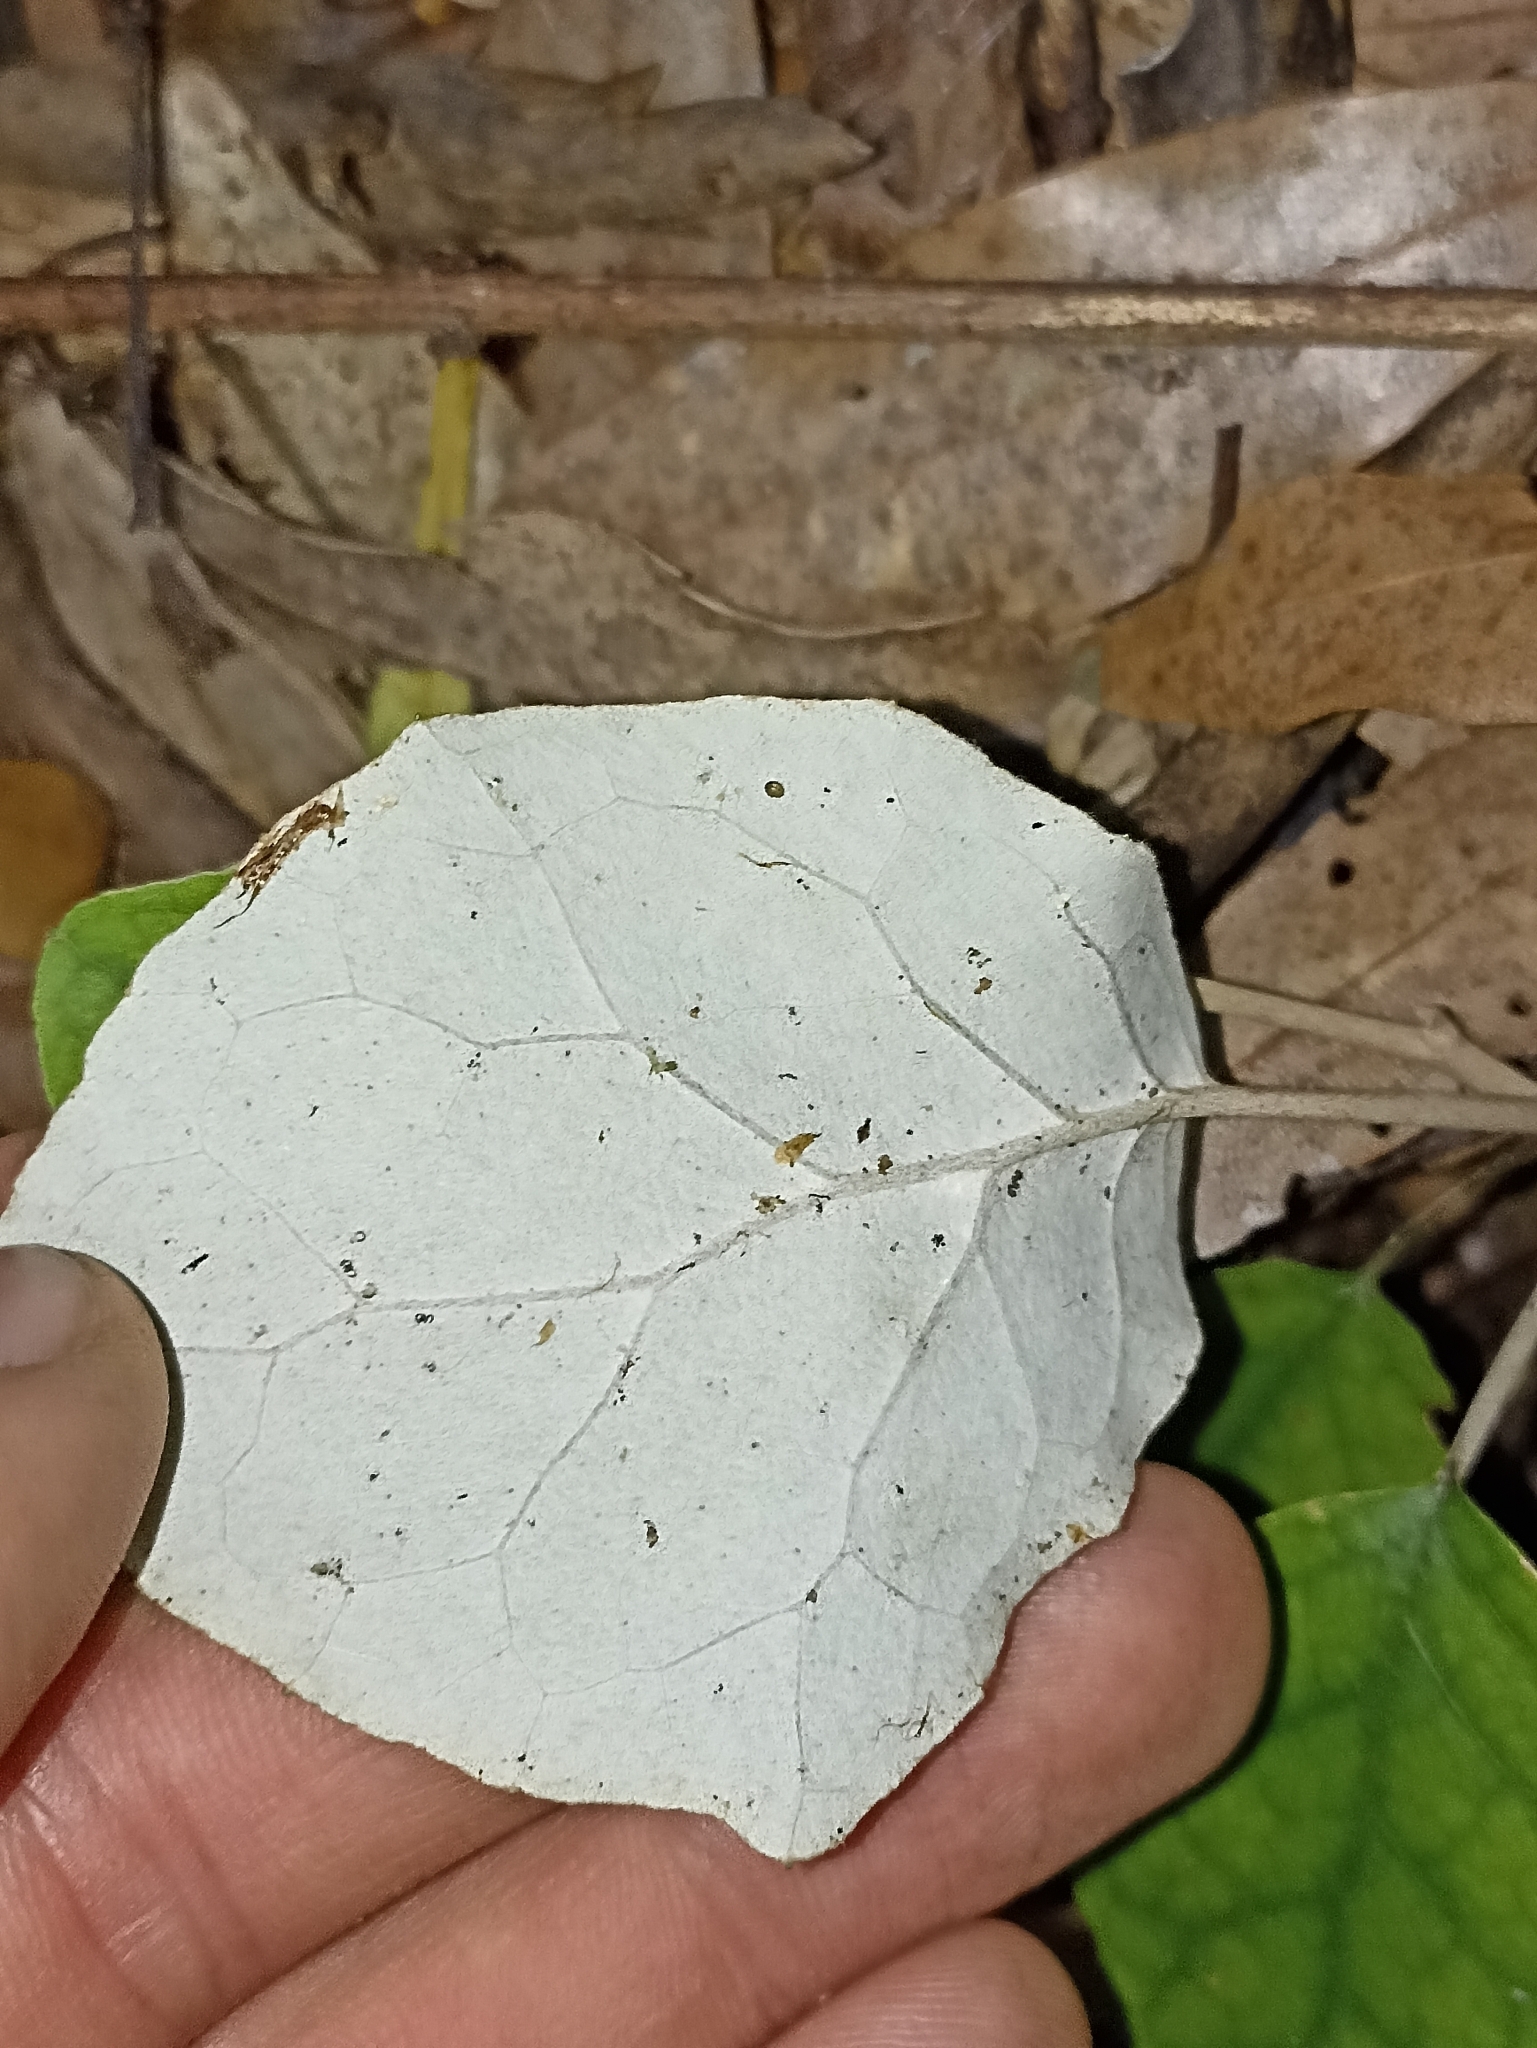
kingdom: Plantae
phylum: Tracheophyta
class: Magnoliopsida
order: Asterales
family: Asteraceae
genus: Brachyglottis
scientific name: Brachyglottis repanda
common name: Hedge ragwort
